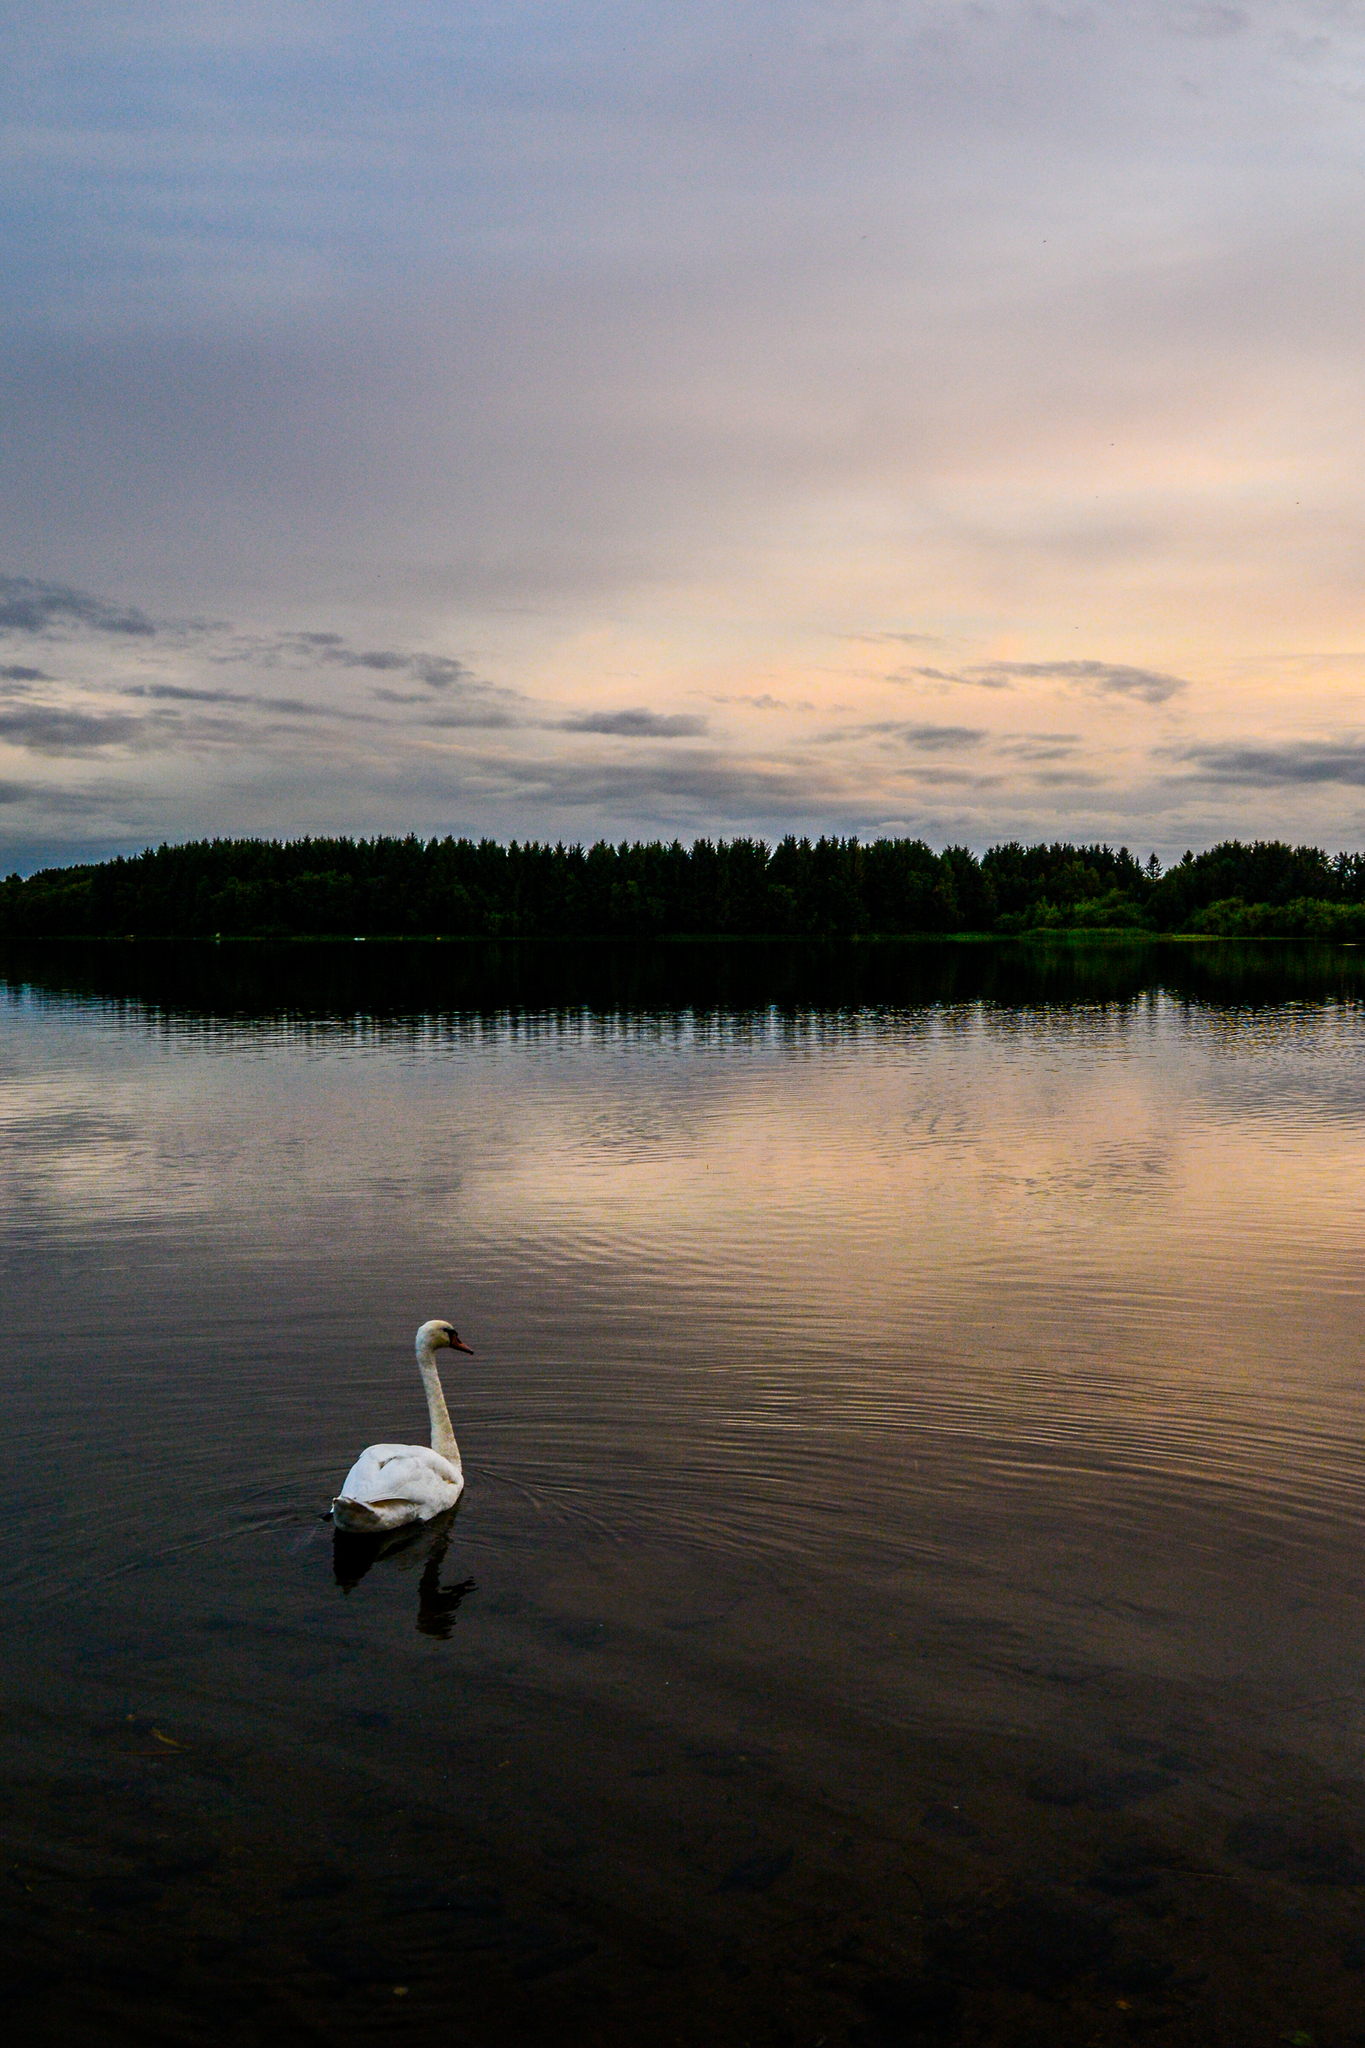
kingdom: Animalia
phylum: Chordata
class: Aves
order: Anseriformes
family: Anatidae
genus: Cygnus
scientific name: Cygnus olor
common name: Mute swan
